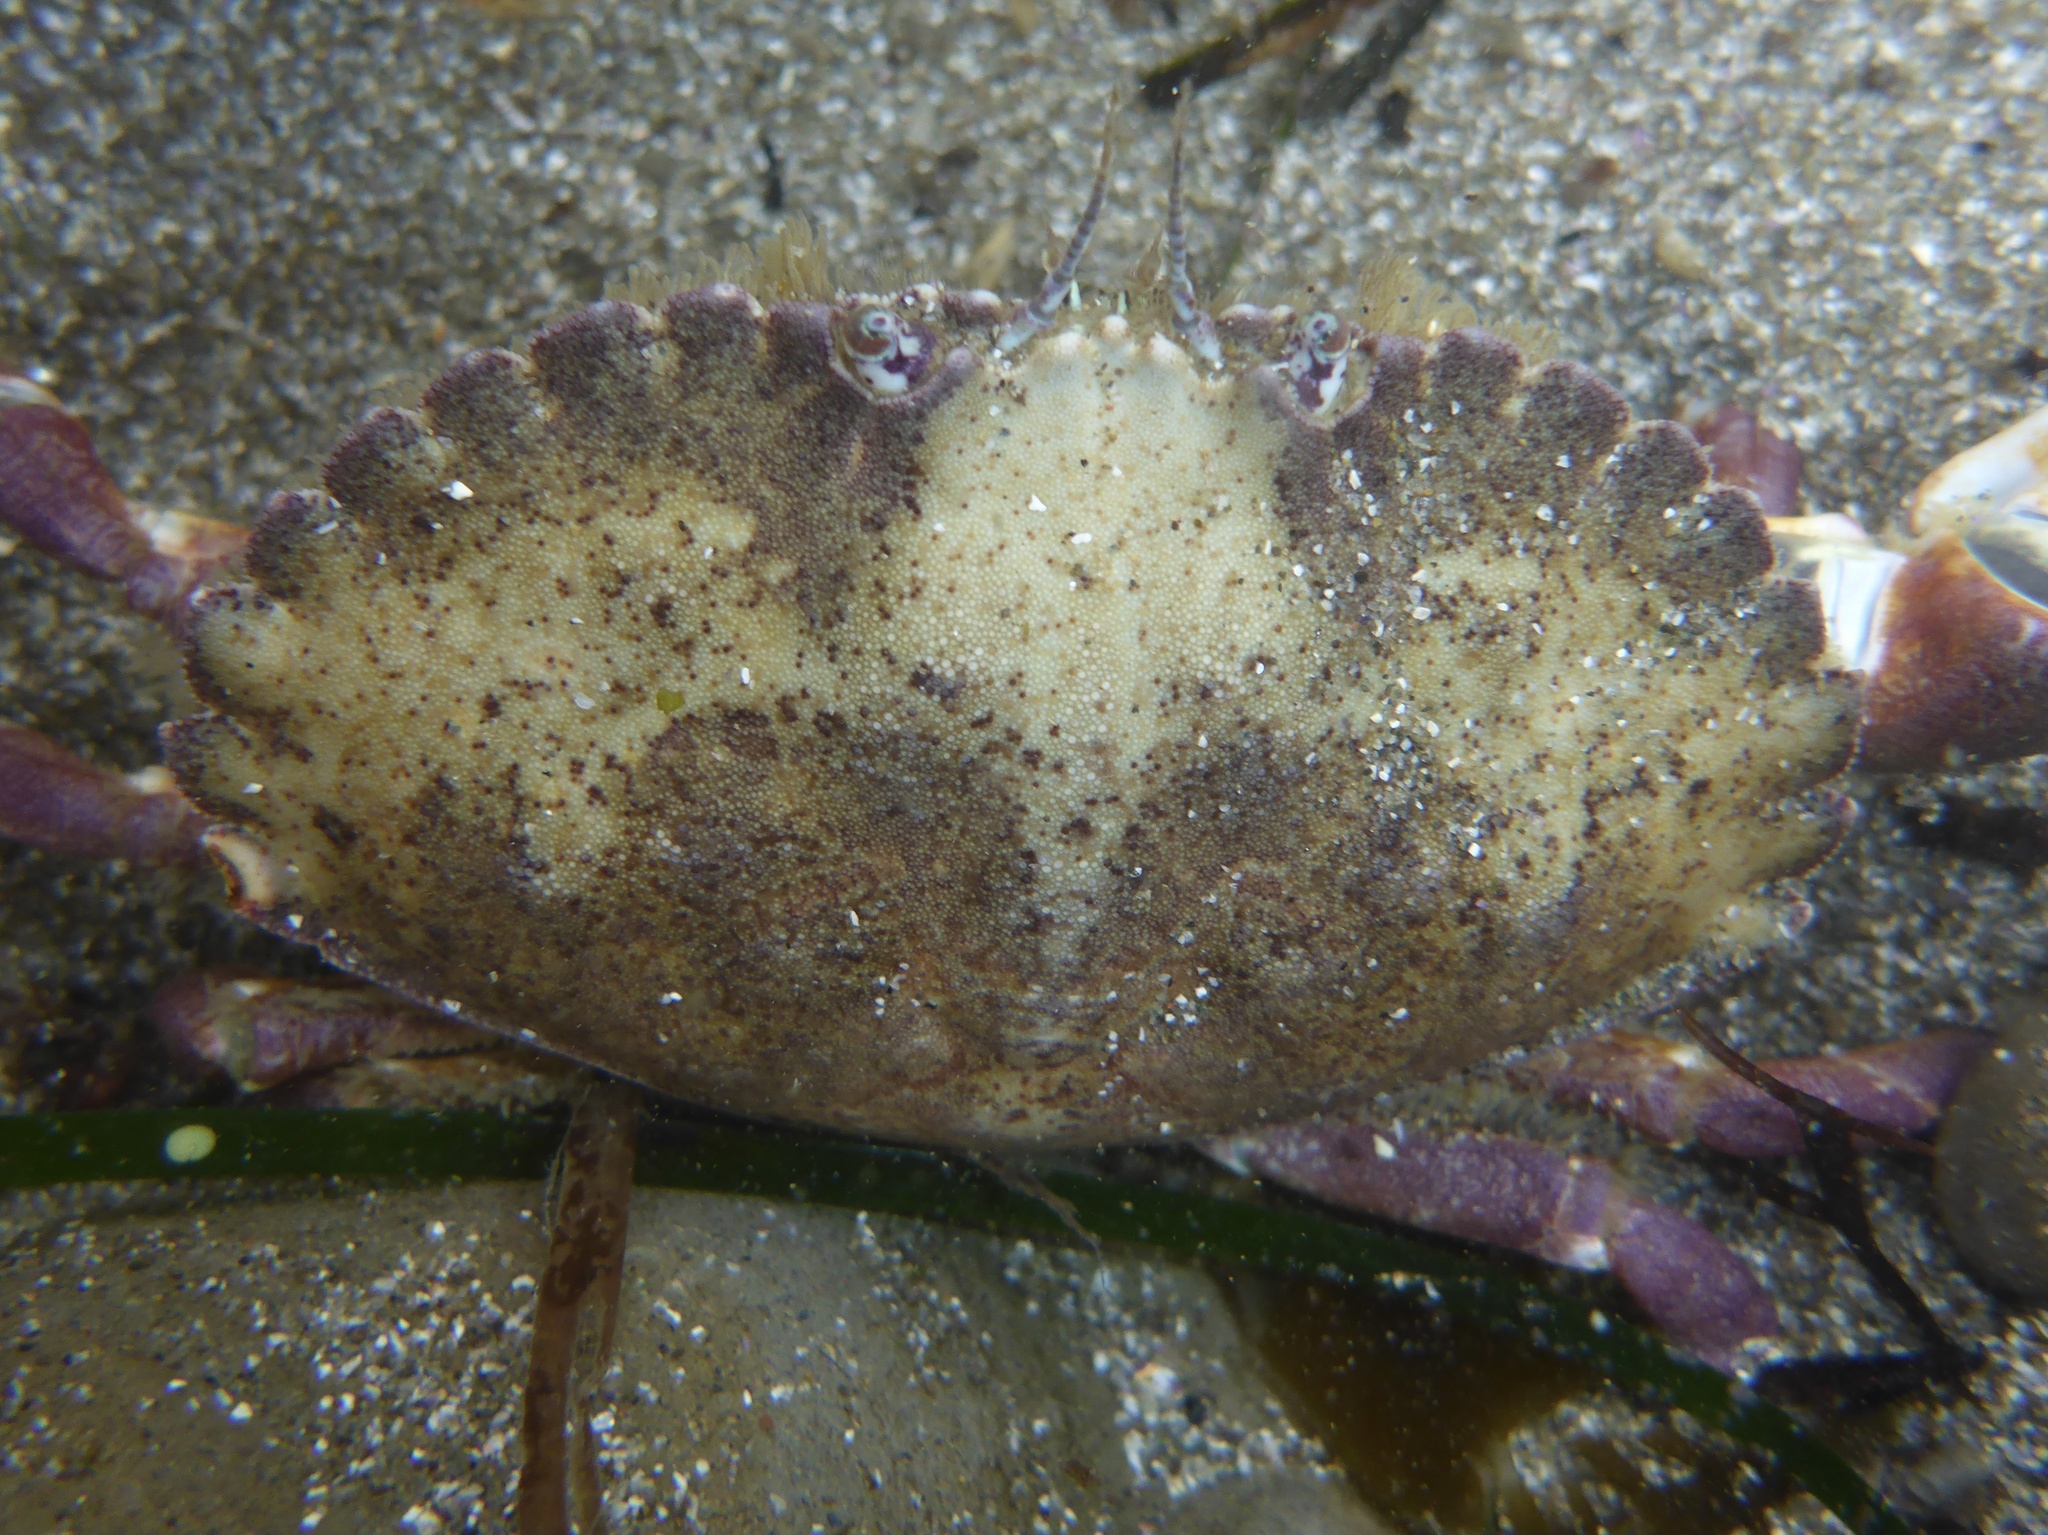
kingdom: Animalia
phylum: Arthropoda
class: Malacostraca
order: Decapoda
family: Cancridae
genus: Metacarcinus
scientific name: Metacarcinus anthonyi
